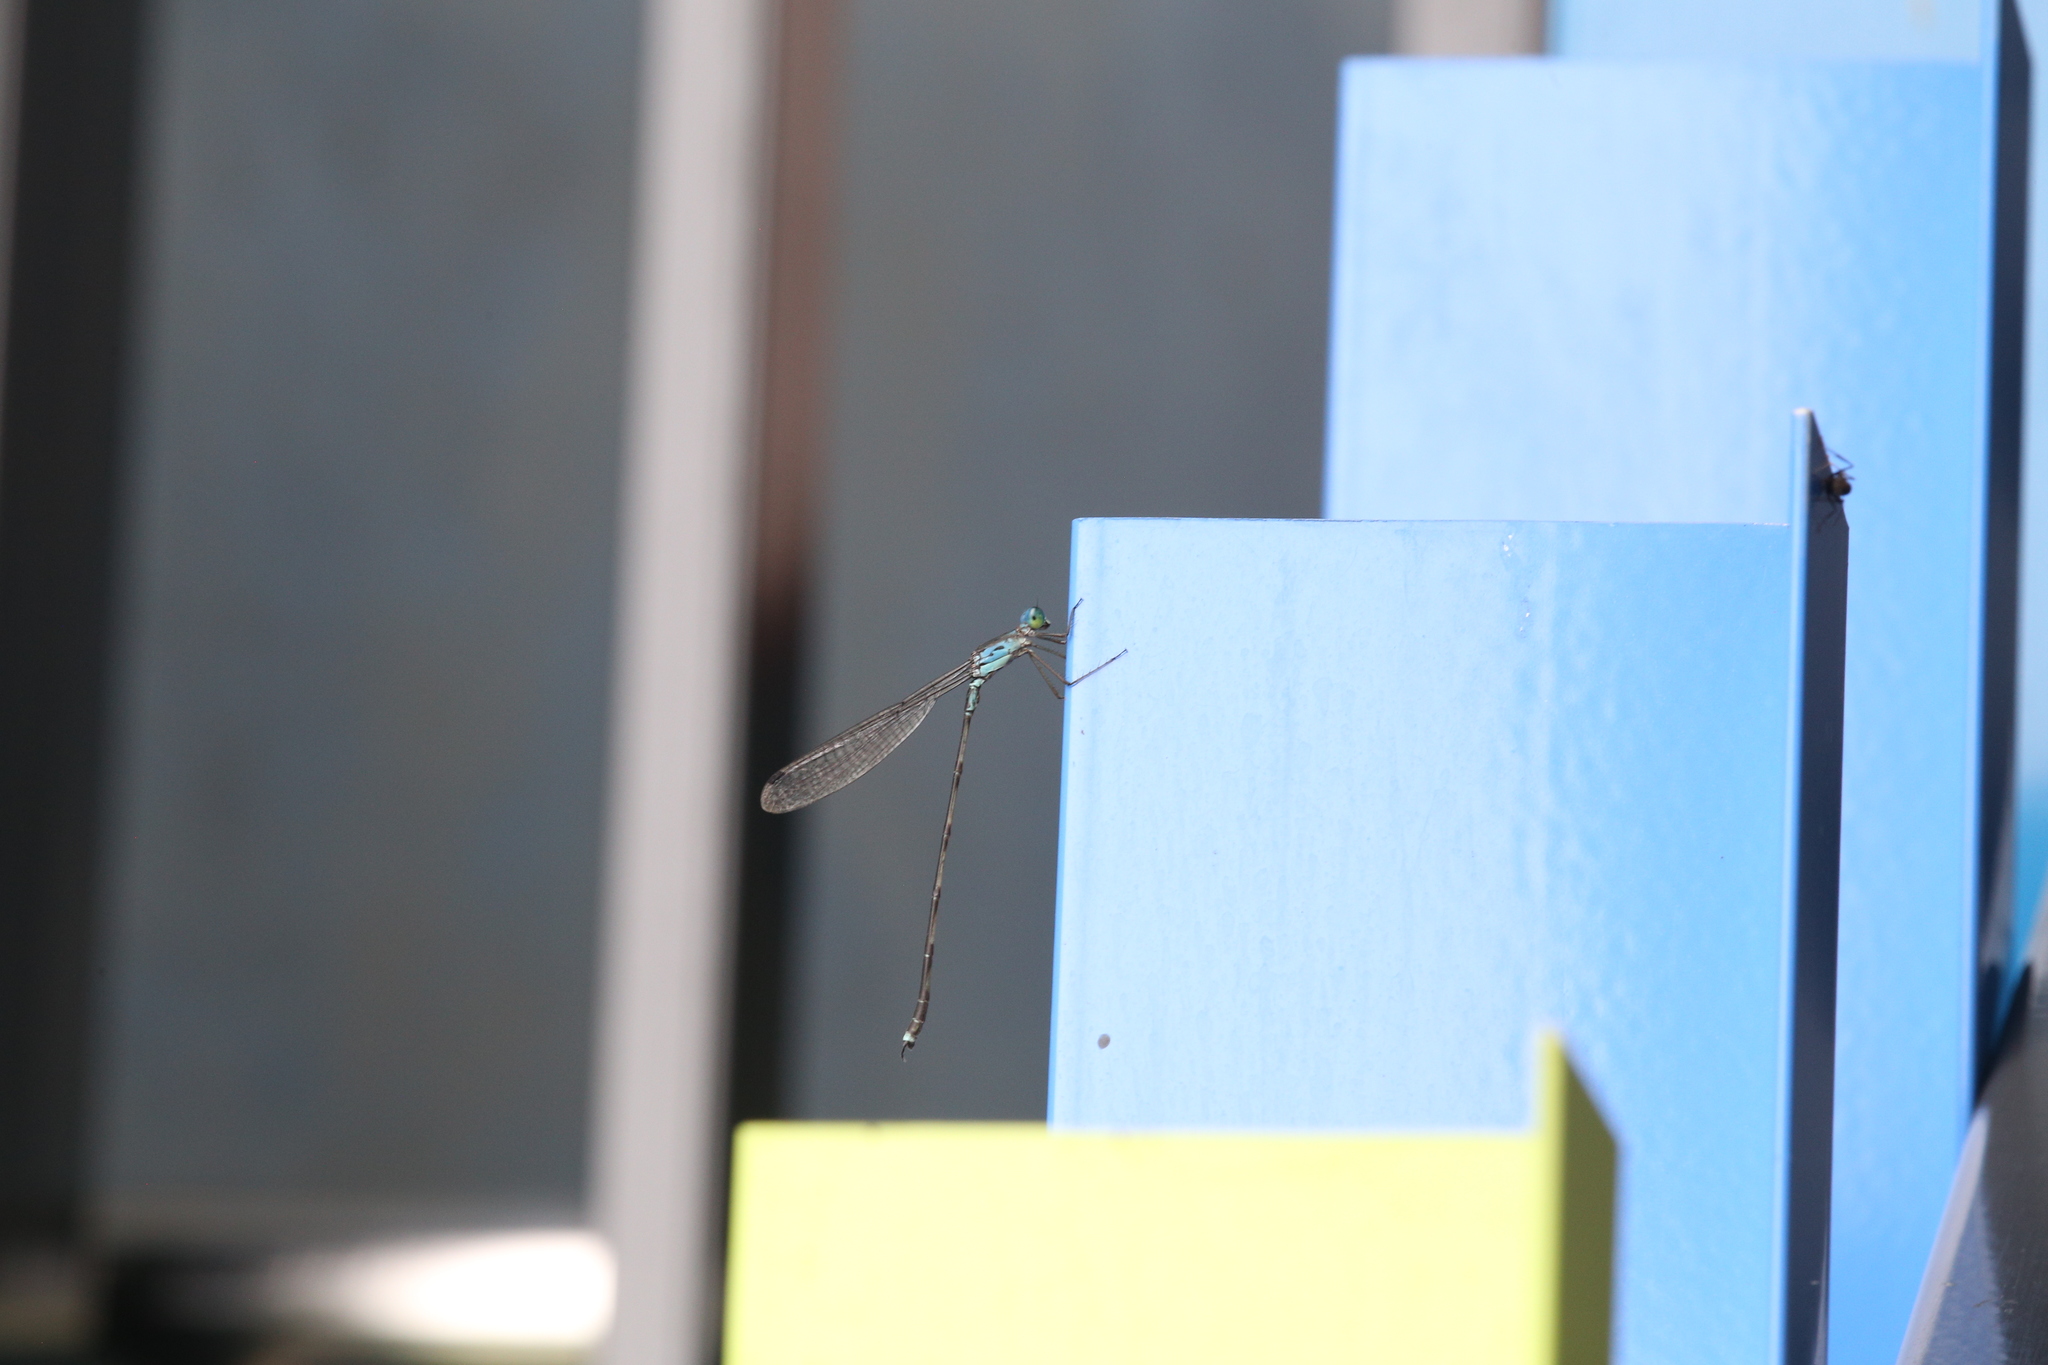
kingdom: Animalia
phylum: Arthropoda
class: Insecta
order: Odonata
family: Lestidae
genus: Indolestes
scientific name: Indolestes tenuissimus
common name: Slender reedling
